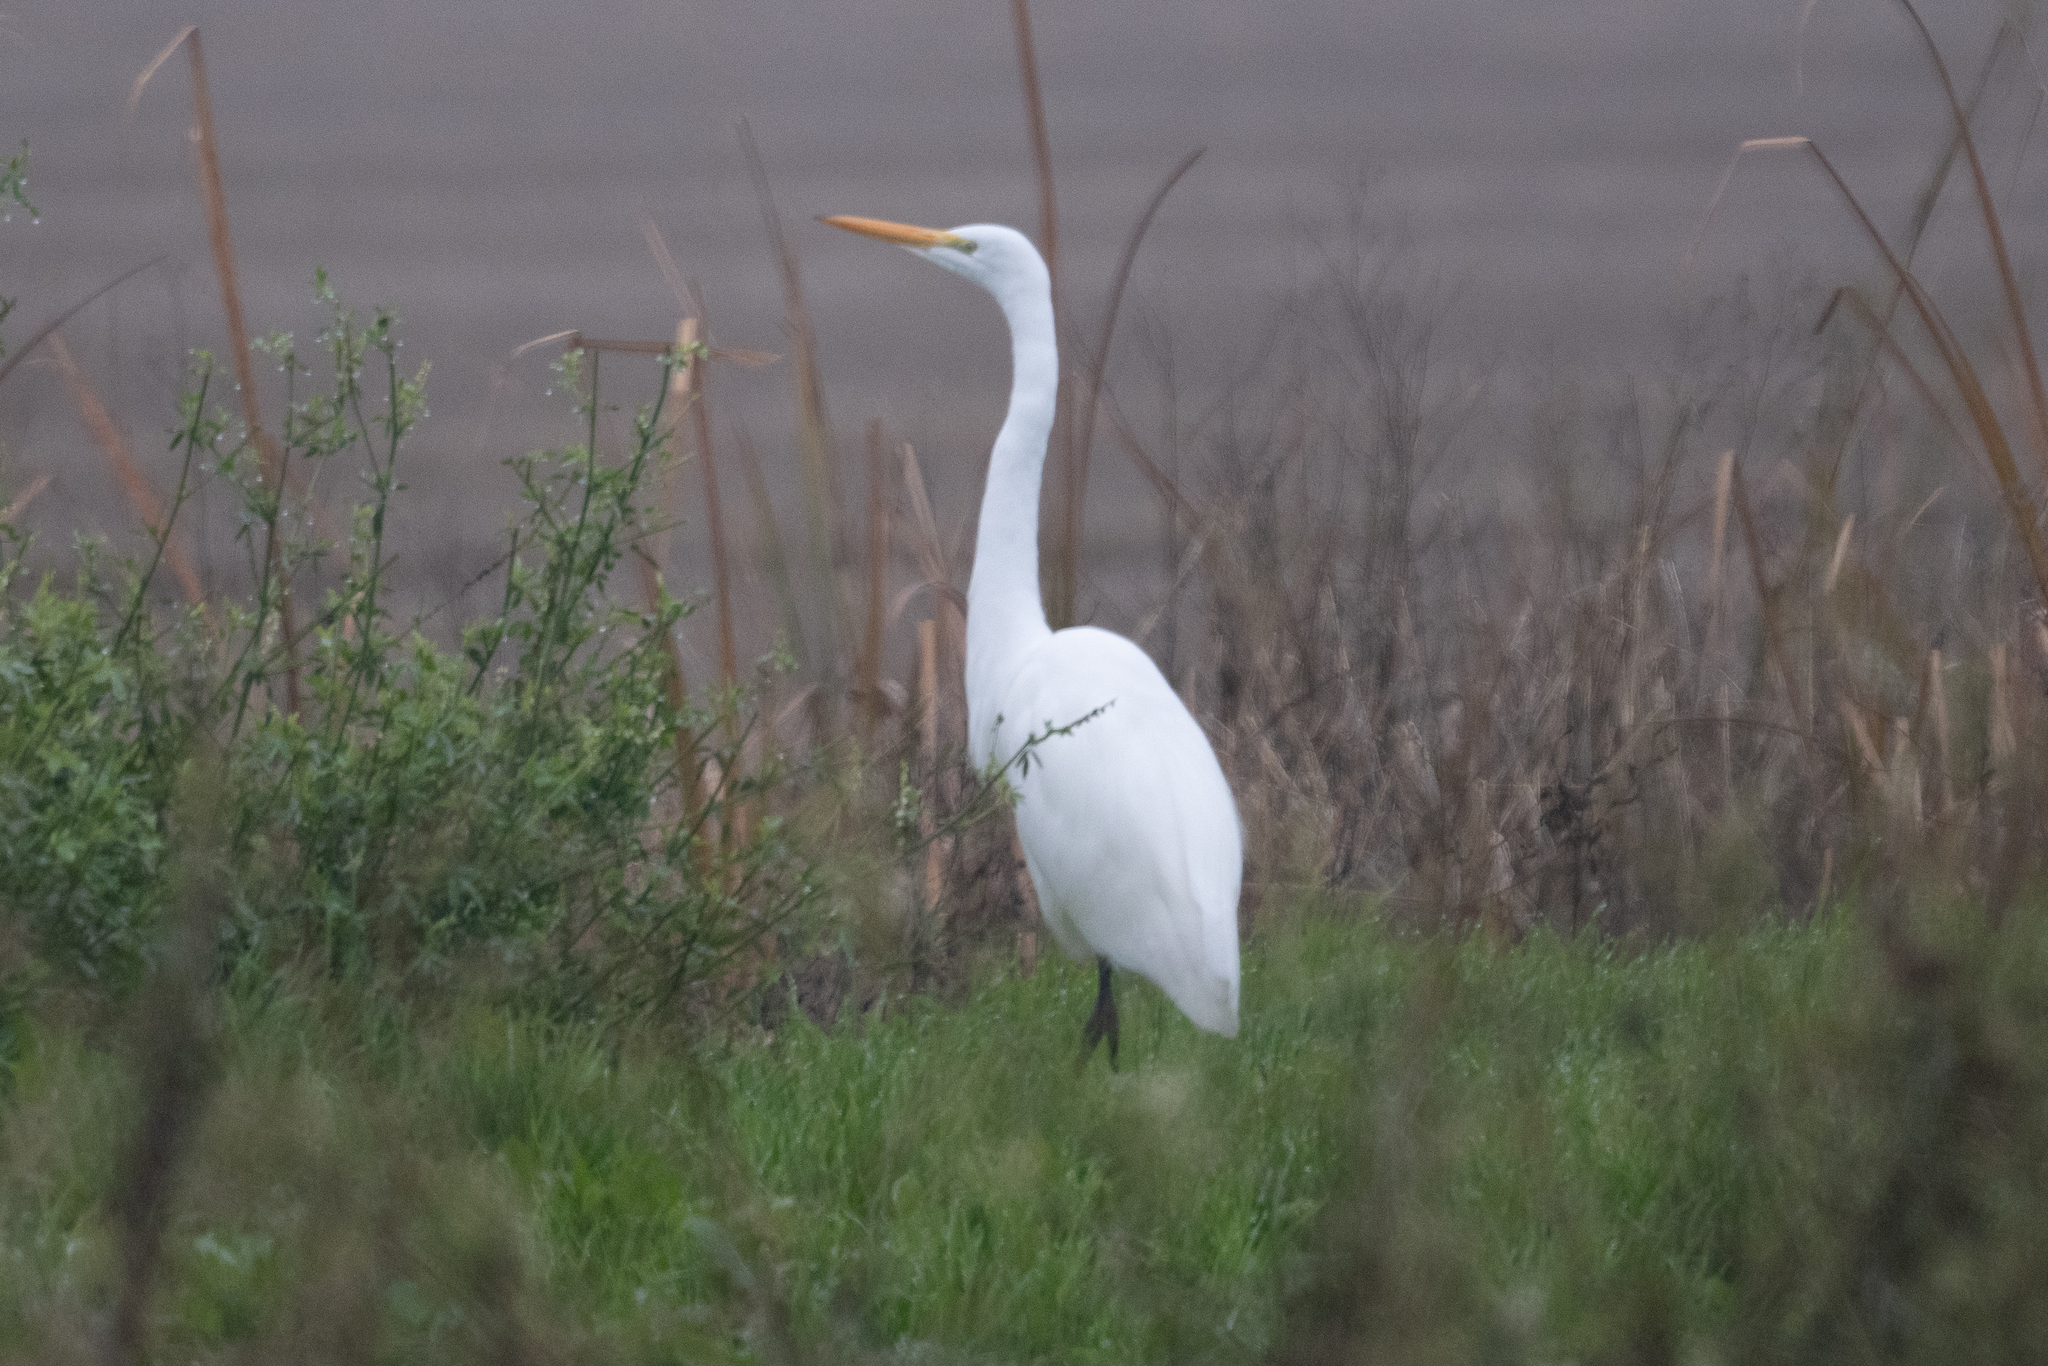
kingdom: Animalia
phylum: Chordata
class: Aves
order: Pelecaniformes
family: Ardeidae
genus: Ardea
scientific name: Ardea alba
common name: Great egret
